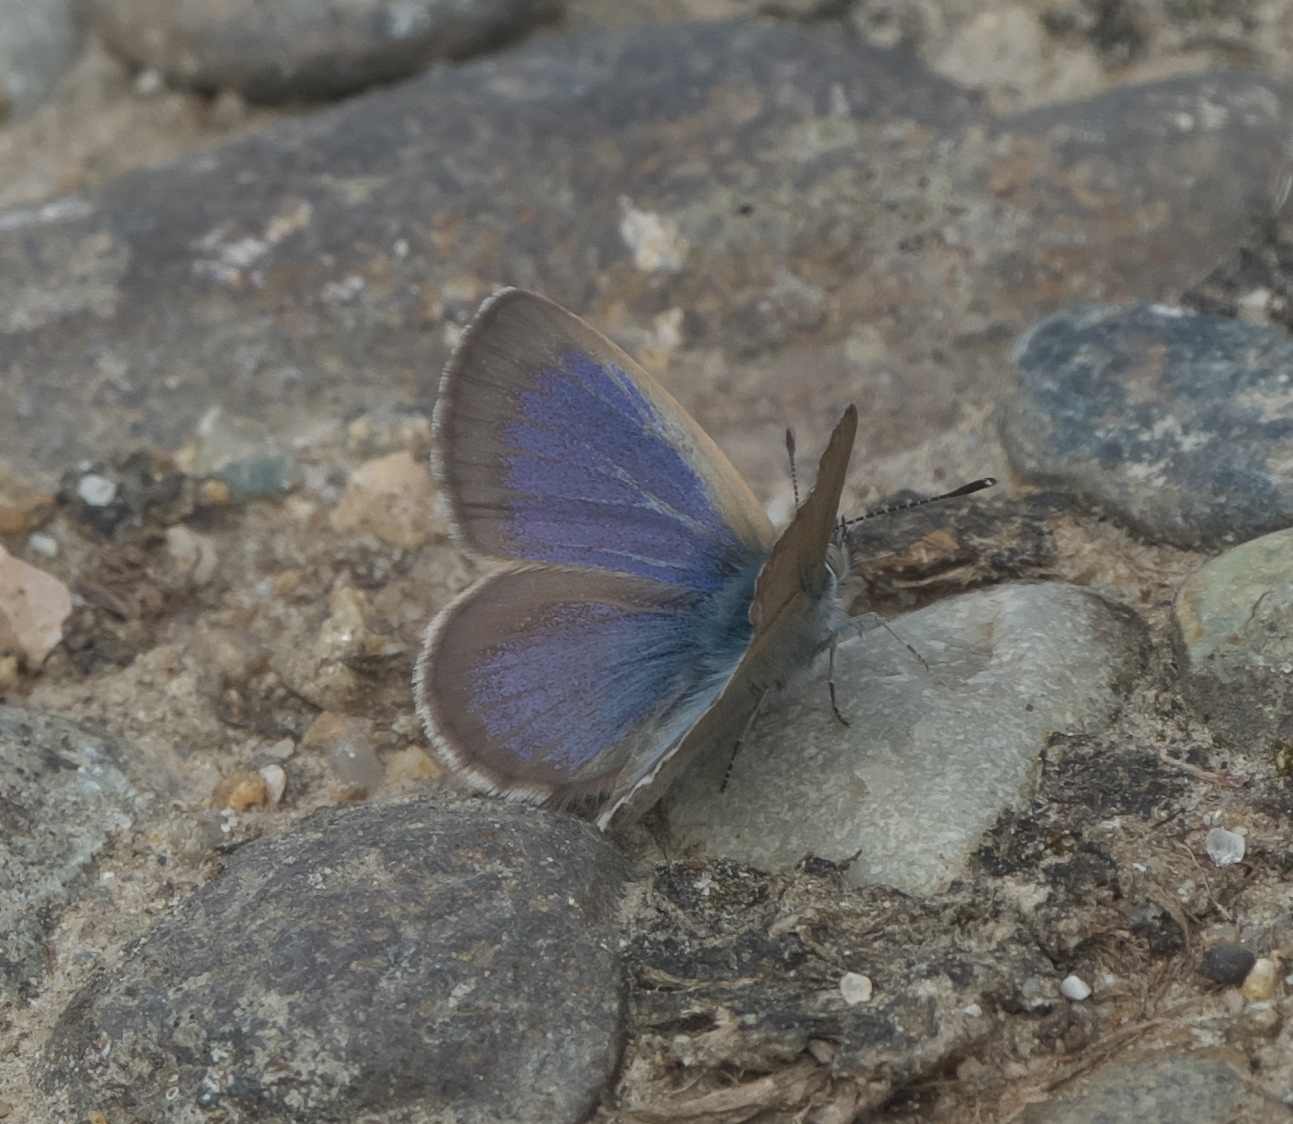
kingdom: Animalia
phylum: Arthropoda
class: Insecta
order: Lepidoptera
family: Lycaenidae
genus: Zizina
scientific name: Zizina otis
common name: Lesser grass blue
